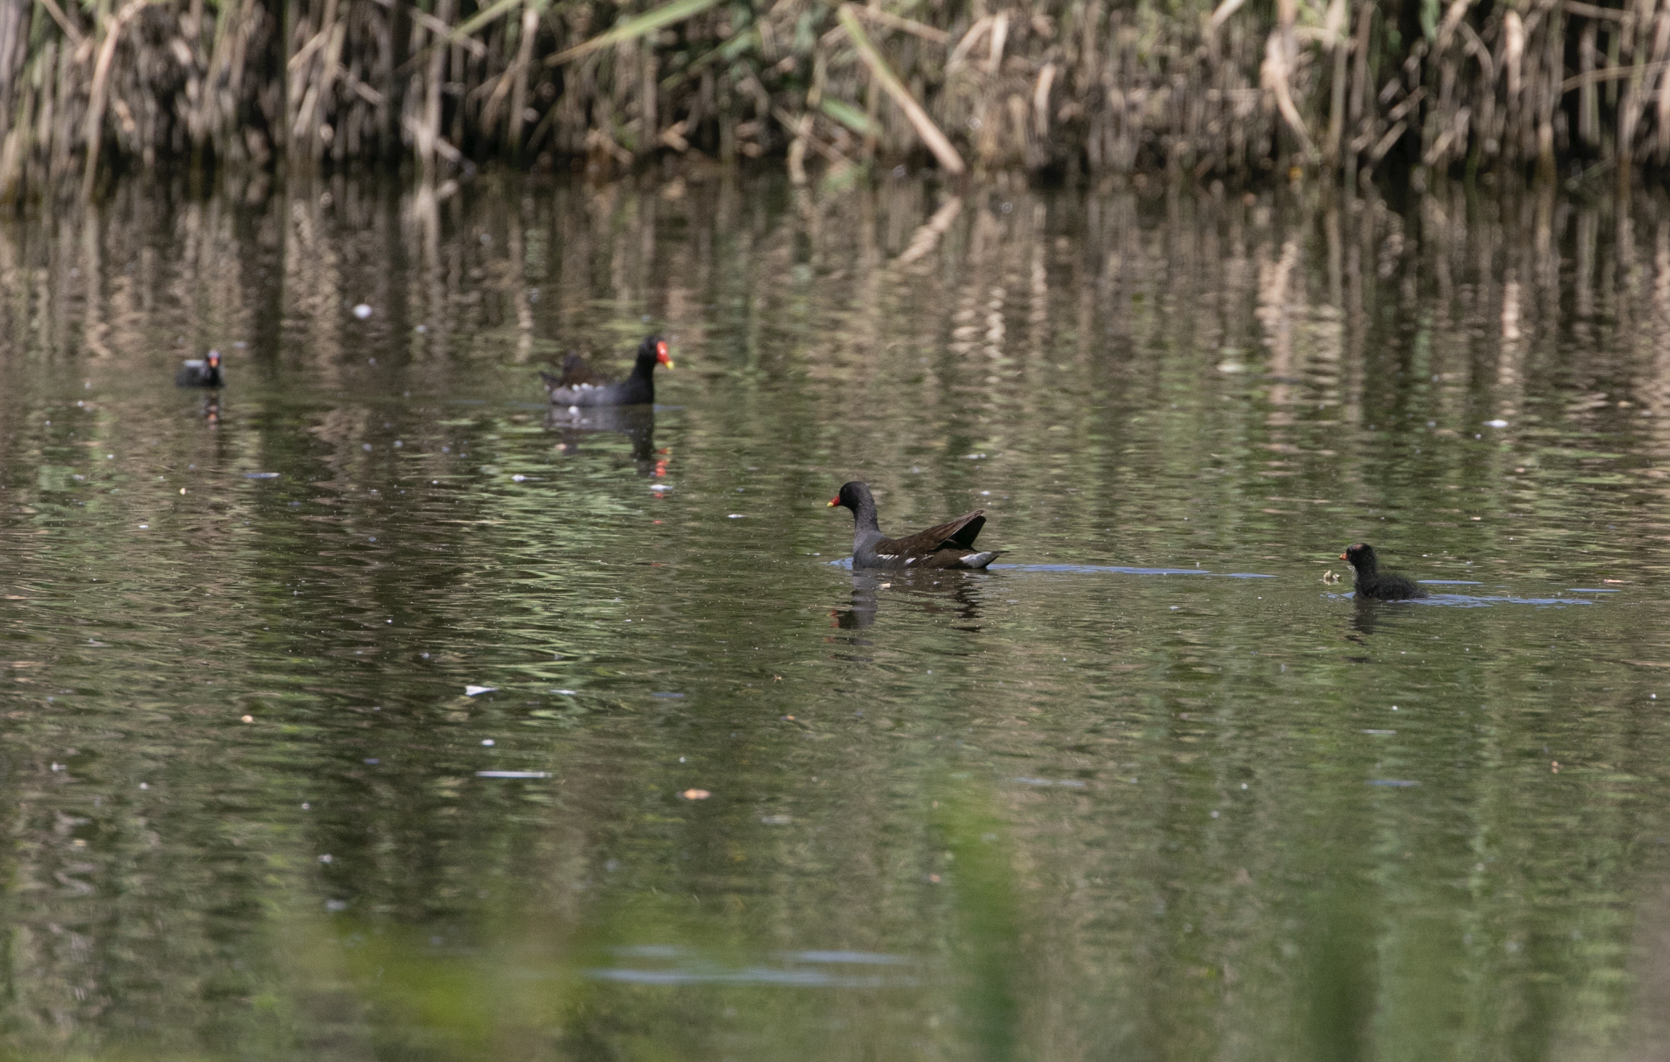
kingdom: Animalia
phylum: Chordata
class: Aves
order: Gruiformes
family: Rallidae
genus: Gallinula
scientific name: Gallinula chloropus
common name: Common moorhen
